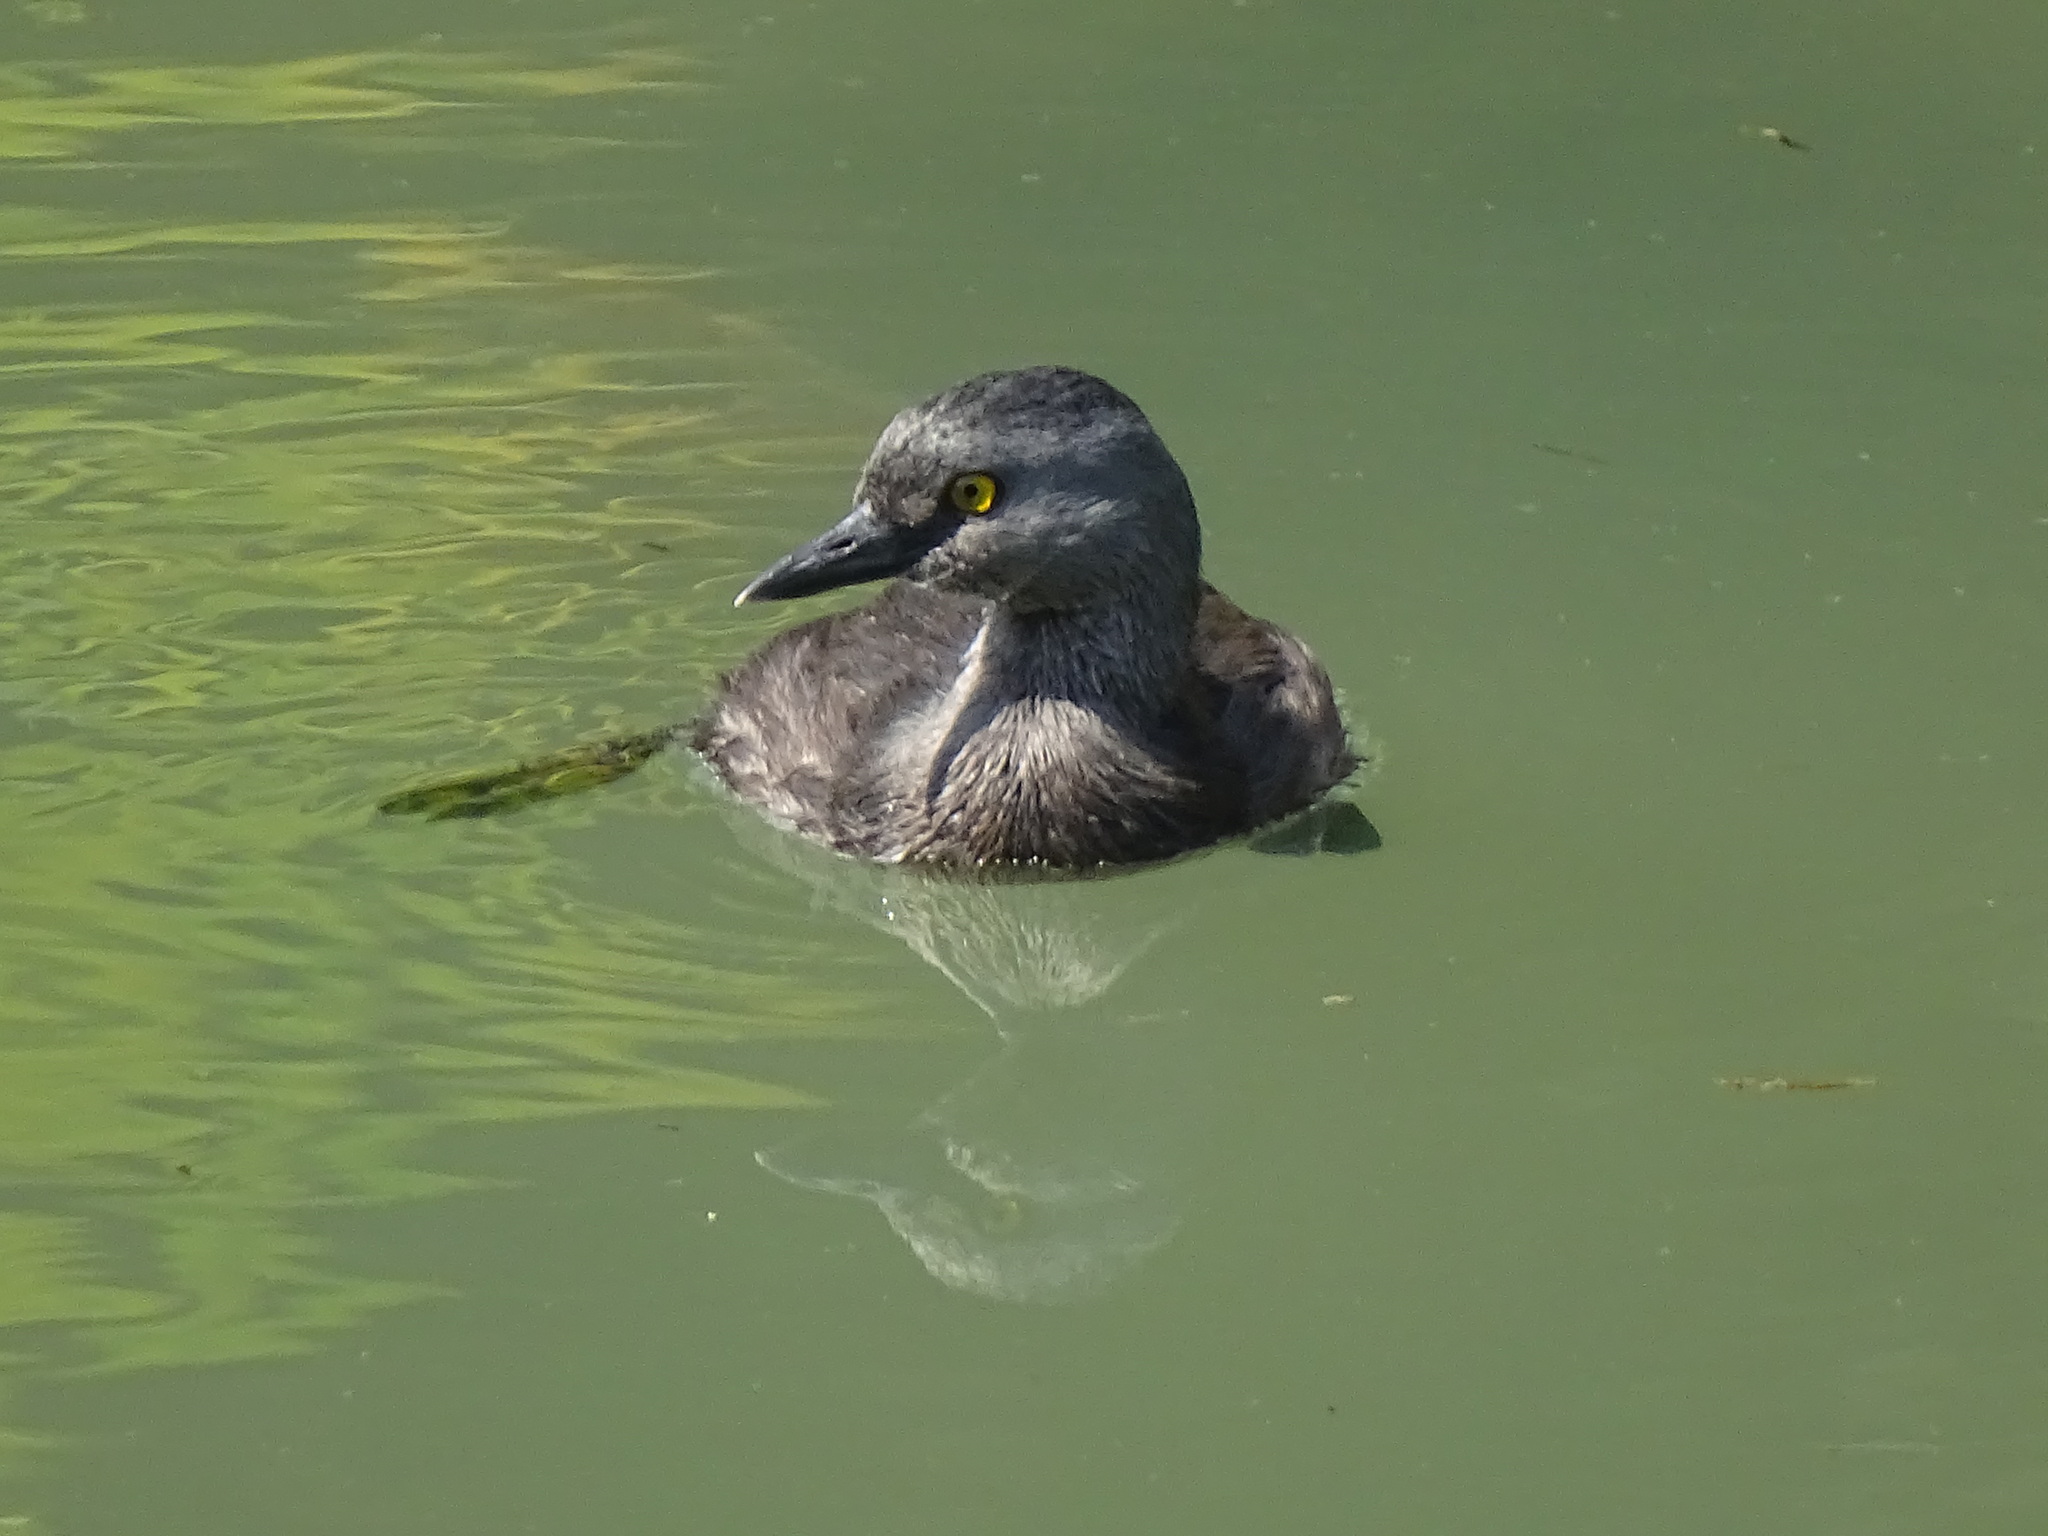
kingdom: Animalia
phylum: Chordata
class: Aves
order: Podicipediformes
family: Podicipedidae
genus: Tachybaptus
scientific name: Tachybaptus dominicus
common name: Least grebe
